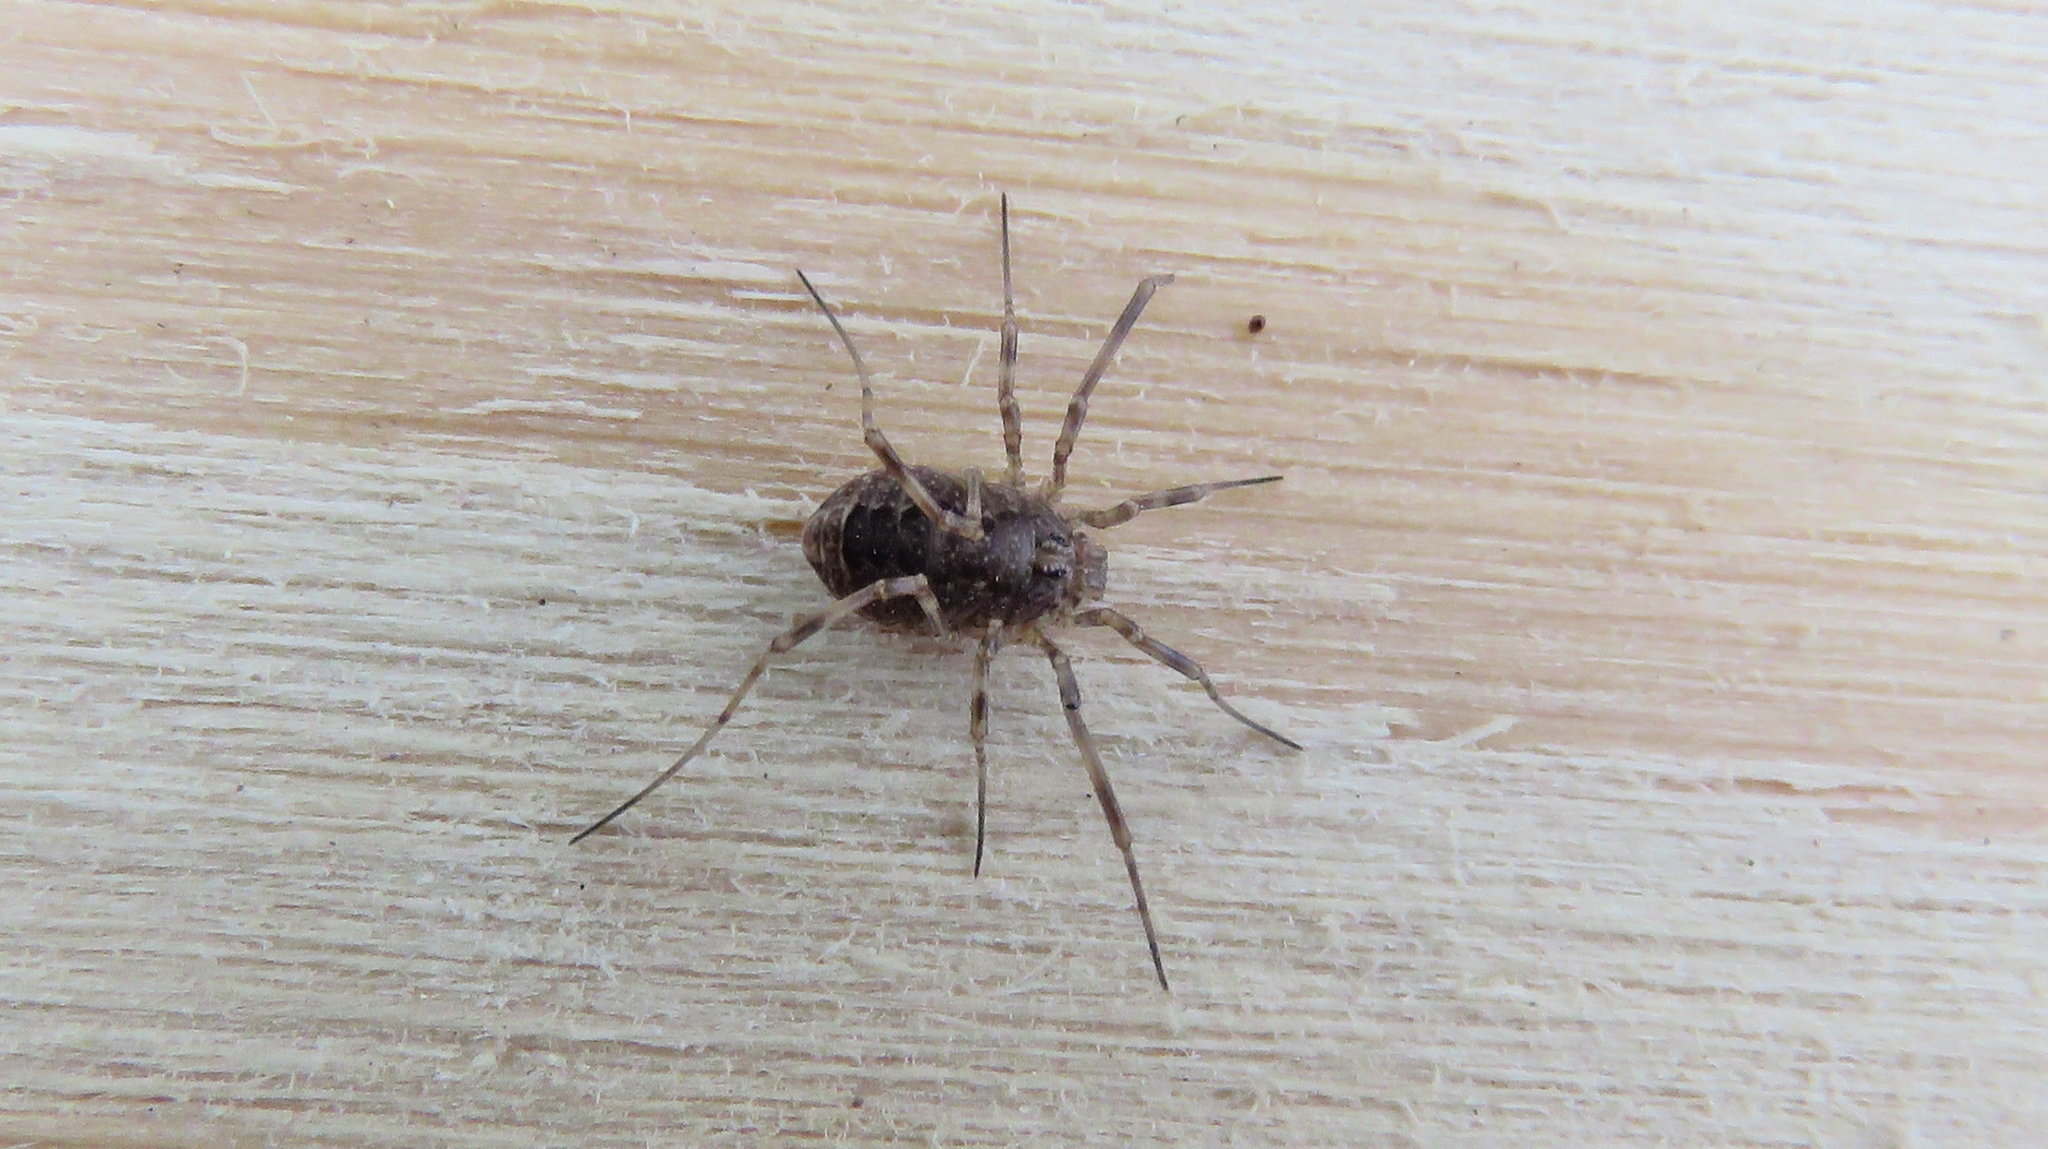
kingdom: Animalia
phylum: Arthropoda
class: Arachnida
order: Opiliones
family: Phalangiidae
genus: Rilaena
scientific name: Rilaena triangularis
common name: Spring harvestman
